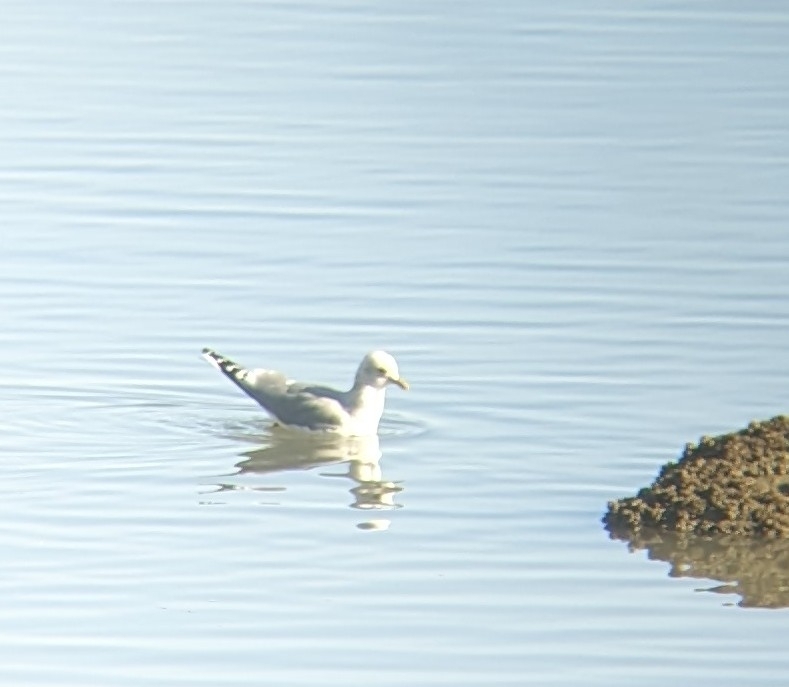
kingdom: Animalia
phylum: Chordata
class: Aves
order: Charadriiformes
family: Laridae
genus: Larus
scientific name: Larus brachyrhynchus
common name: Short-billed gull
